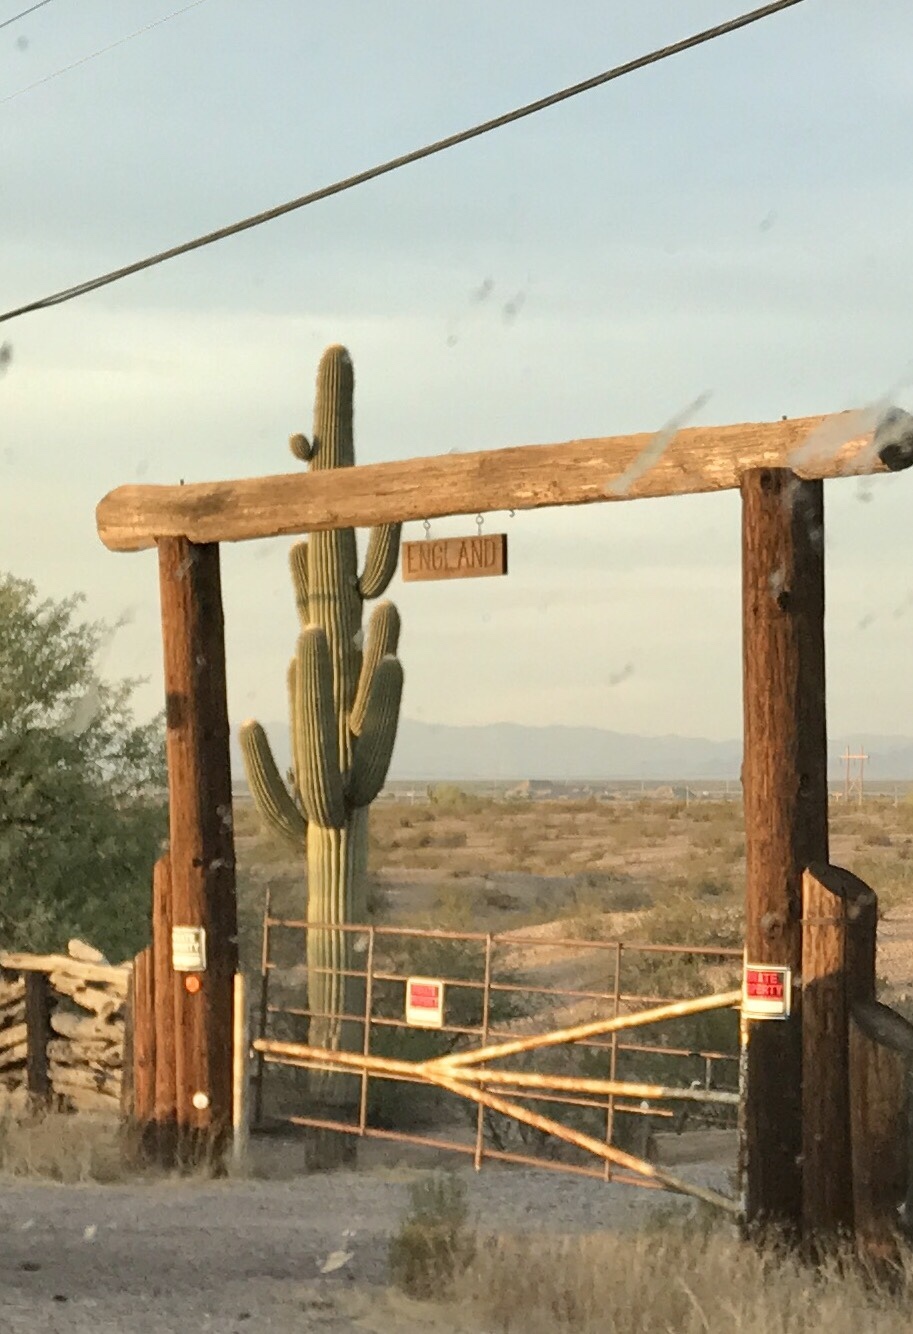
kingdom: Plantae
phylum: Tracheophyta
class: Magnoliopsida
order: Caryophyllales
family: Cactaceae
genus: Carnegiea
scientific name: Carnegiea gigantea
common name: Saguaro
